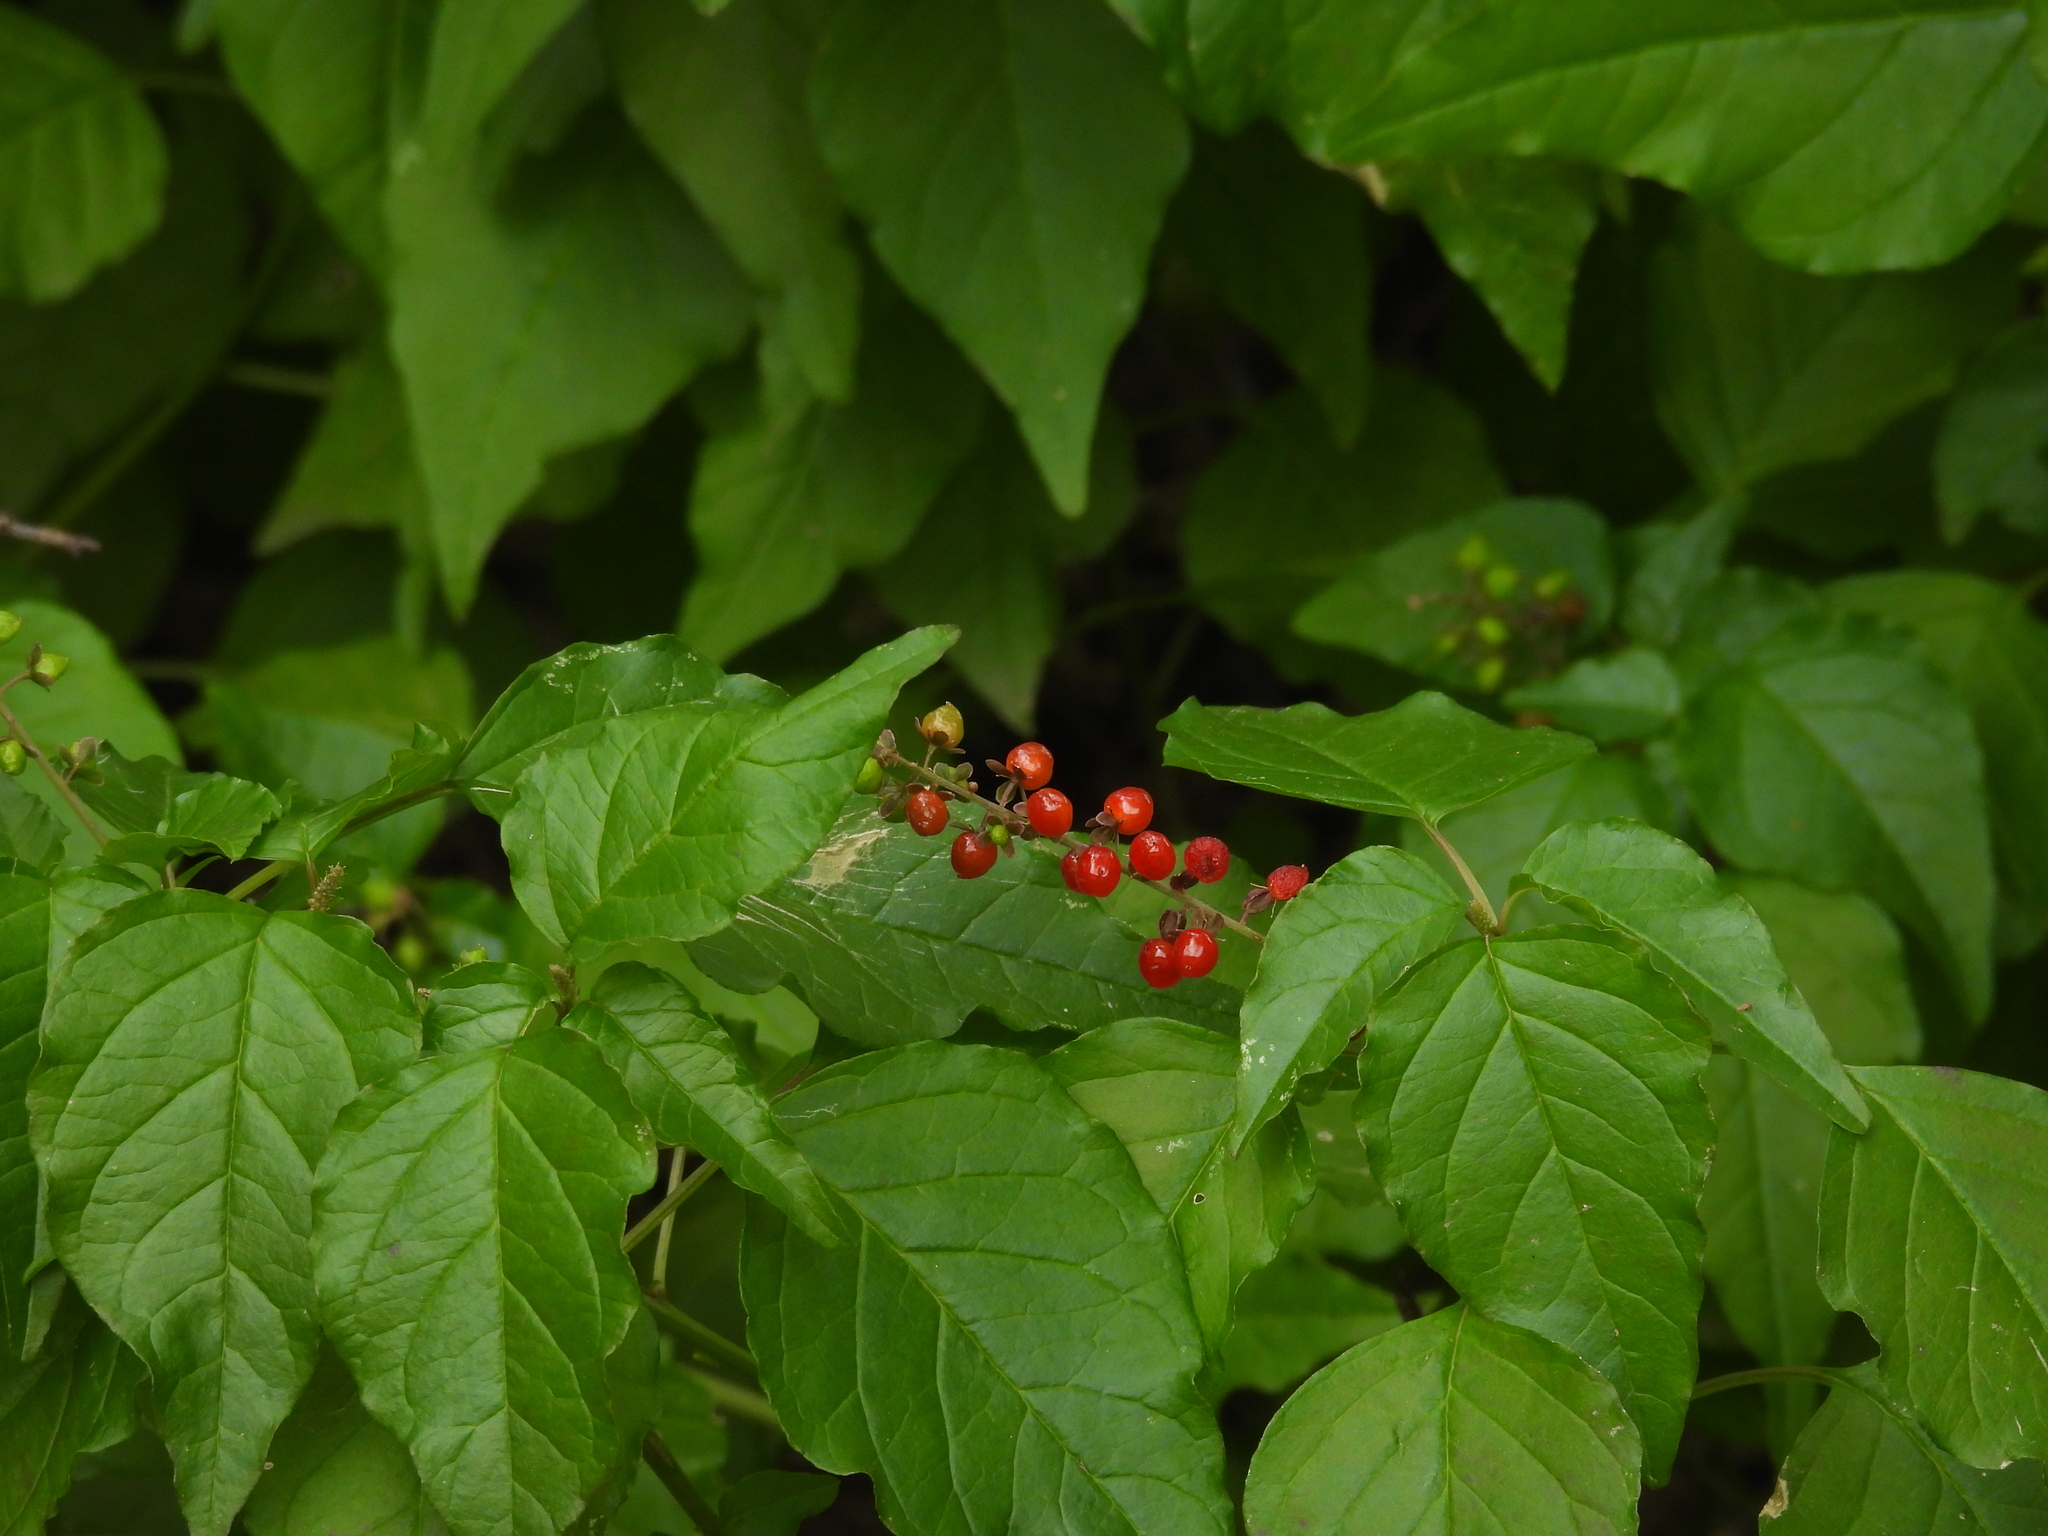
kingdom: Plantae
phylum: Tracheophyta
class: Magnoliopsida
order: Caryophyllales
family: Phytolaccaceae
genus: Rivina
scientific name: Rivina humilis
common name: Rougeplant
